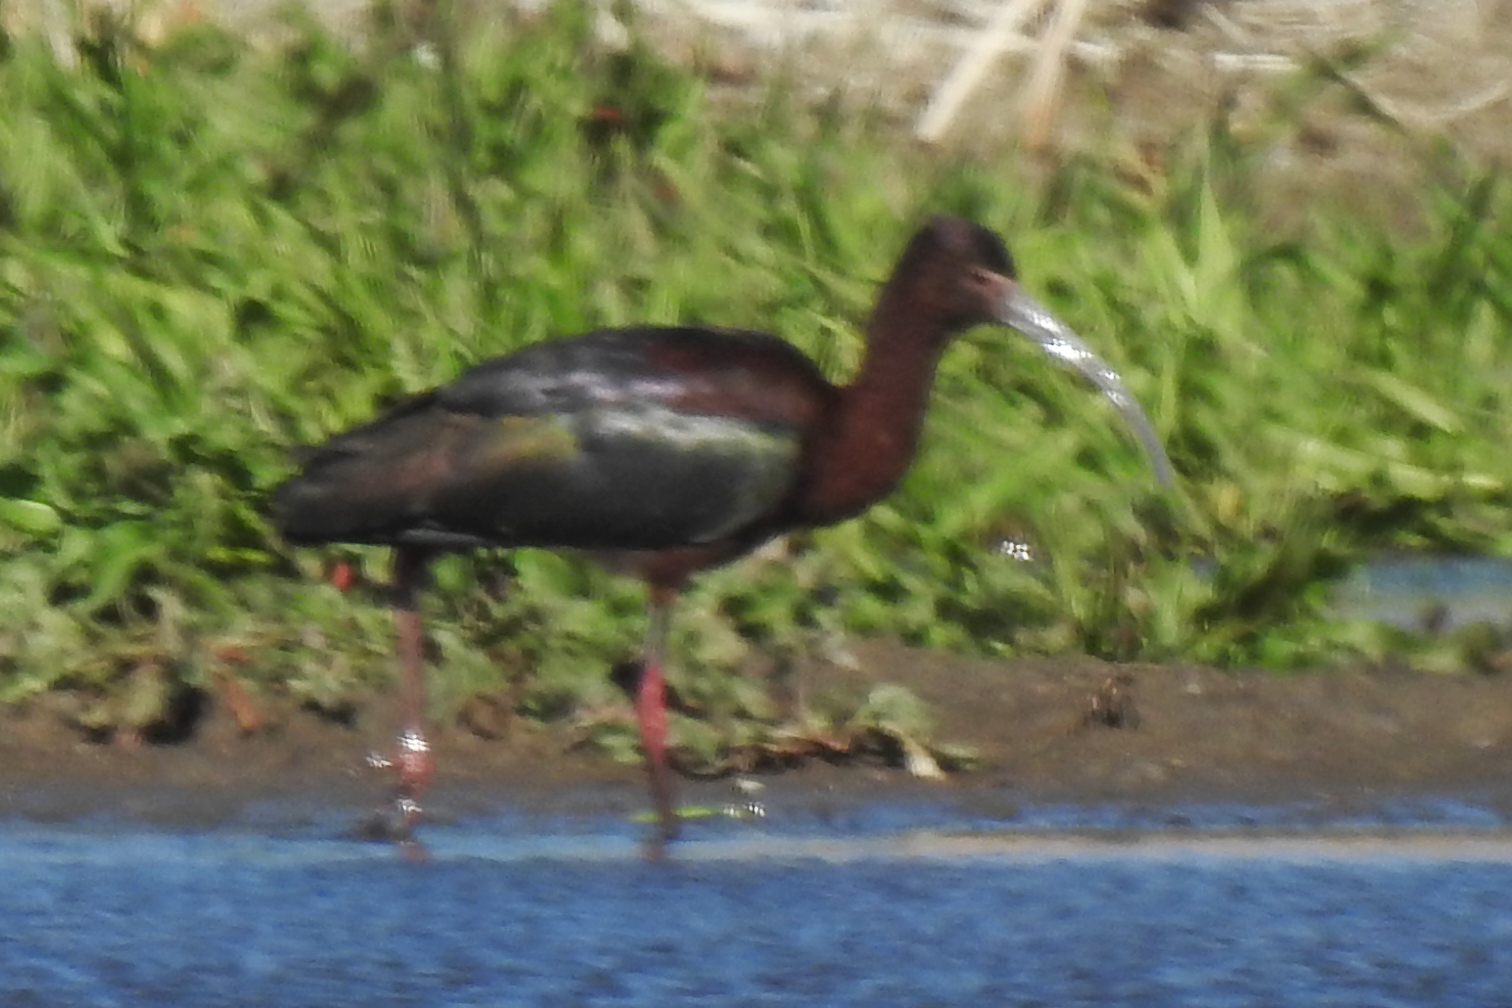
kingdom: Animalia
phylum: Chordata
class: Aves
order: Pelecaniformes
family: Threskiornithidae
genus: Plegadis
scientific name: Plegadis chihi
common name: White-faced ibis
